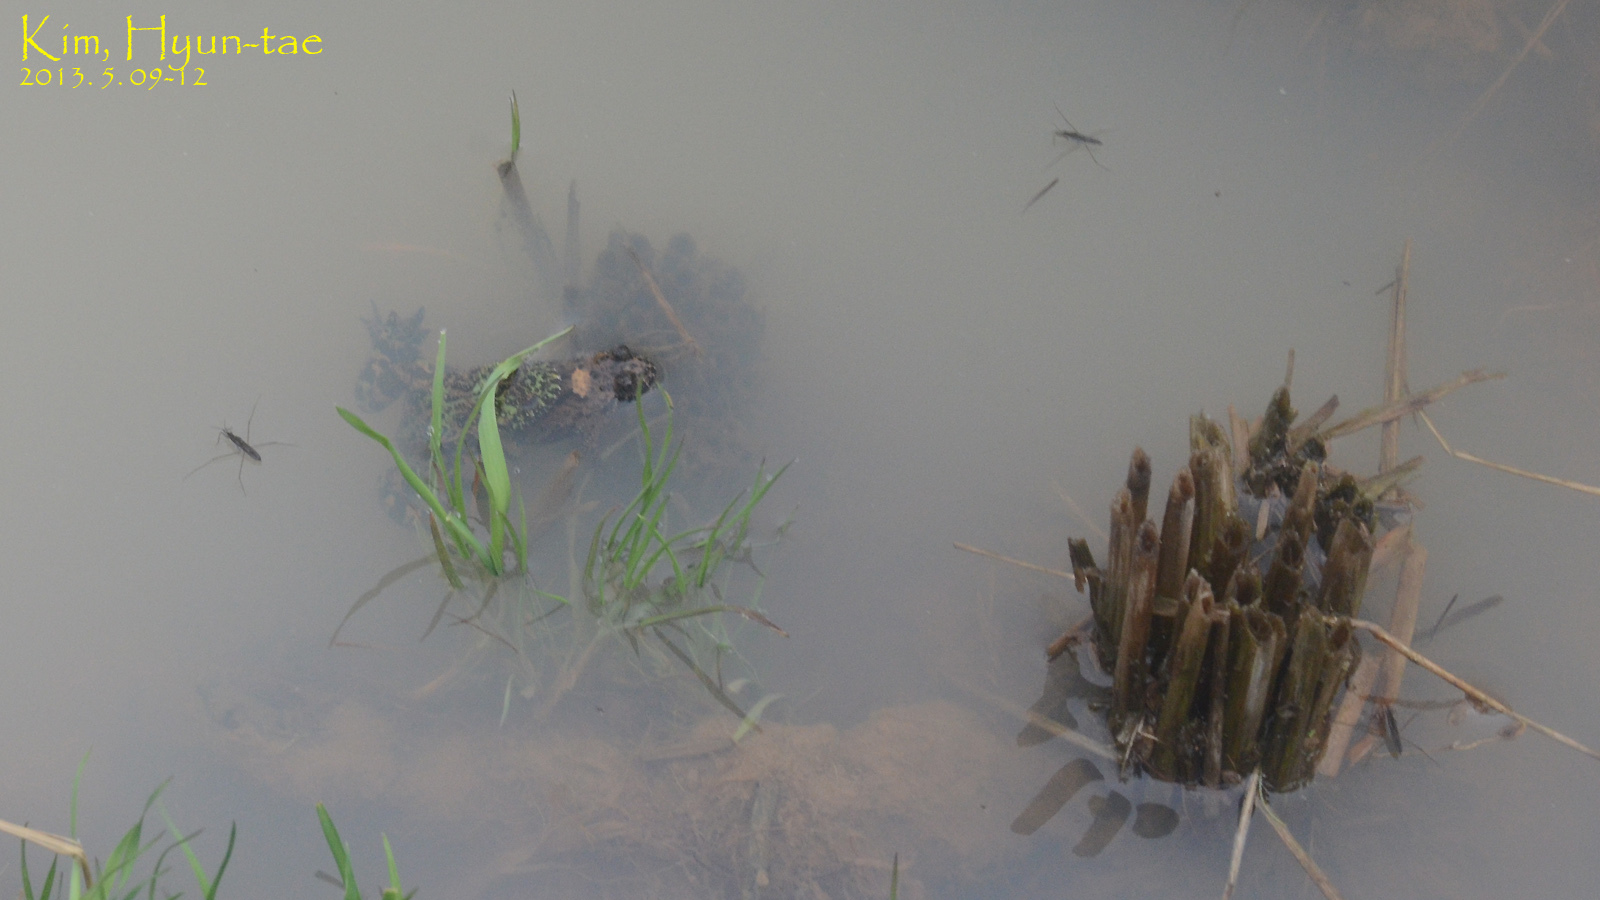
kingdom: Animalia
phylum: Chordata
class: Amphibia
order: Anura
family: Bombinatoridae
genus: Bombina
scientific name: Bombina orientalis
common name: Oriental firebelly toad
